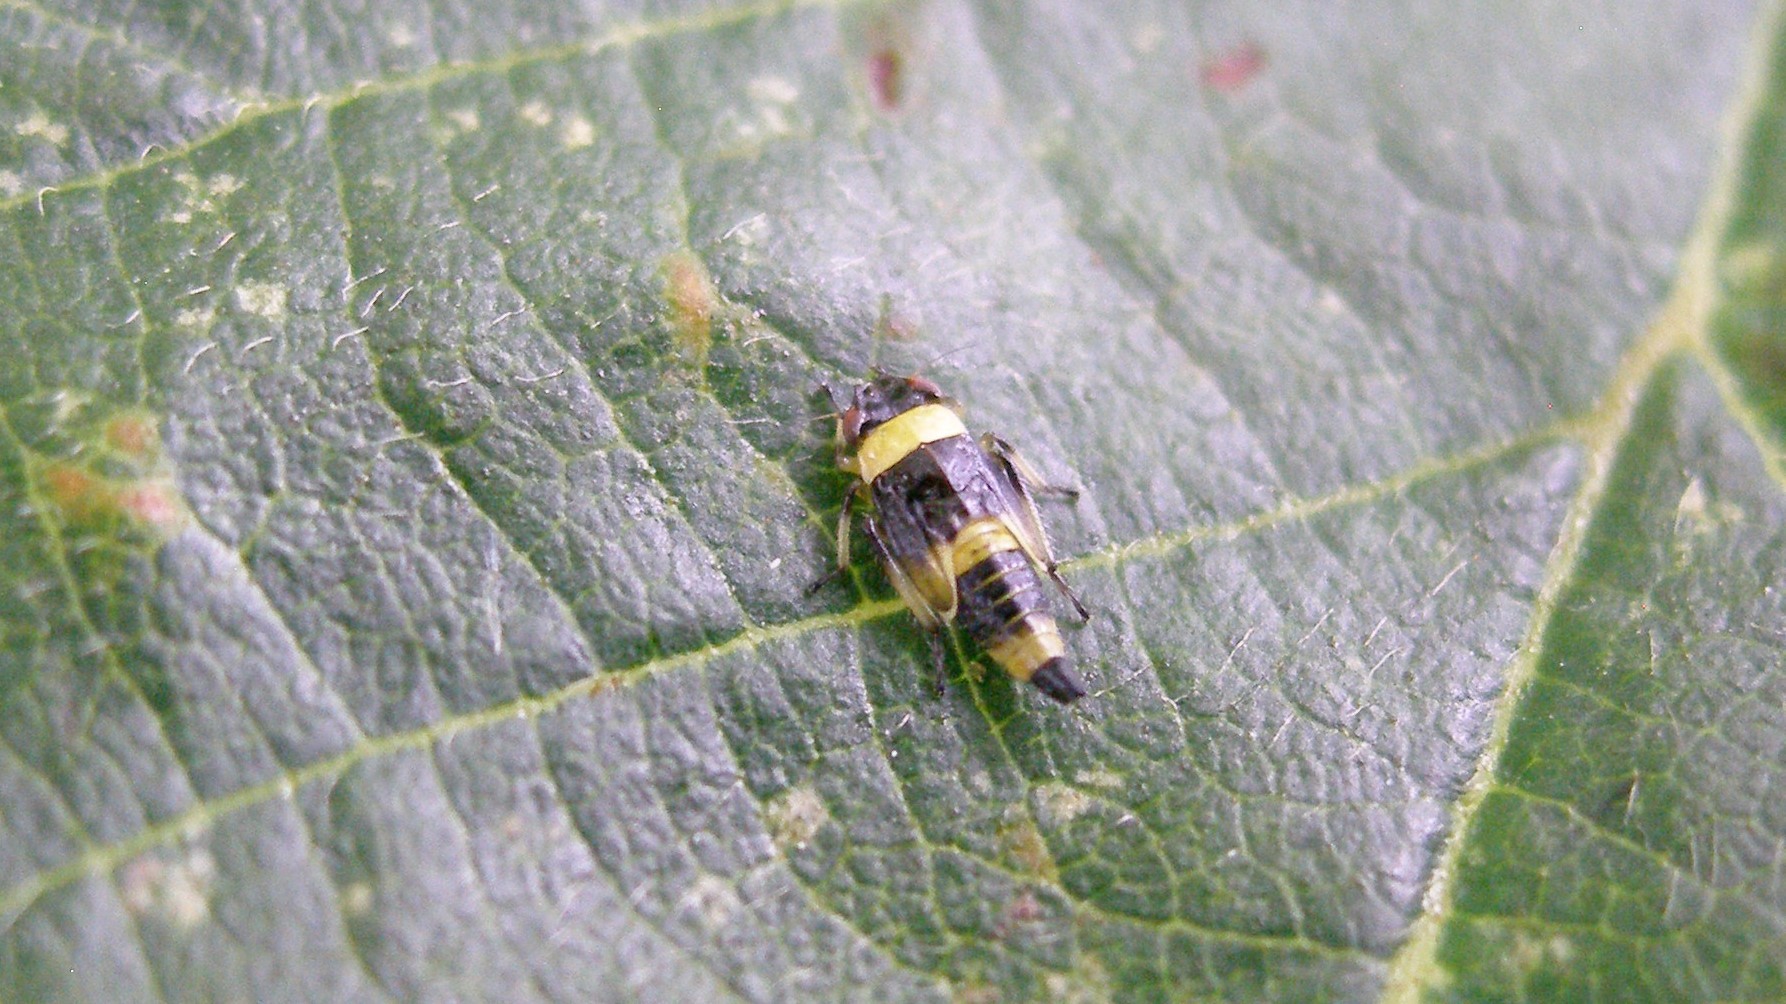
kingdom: Animalia
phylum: Arthropoda
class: Insecta
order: Hemiptera
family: Cicadellidae
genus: Eupterycyba
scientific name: Eupterycyba jucunda
